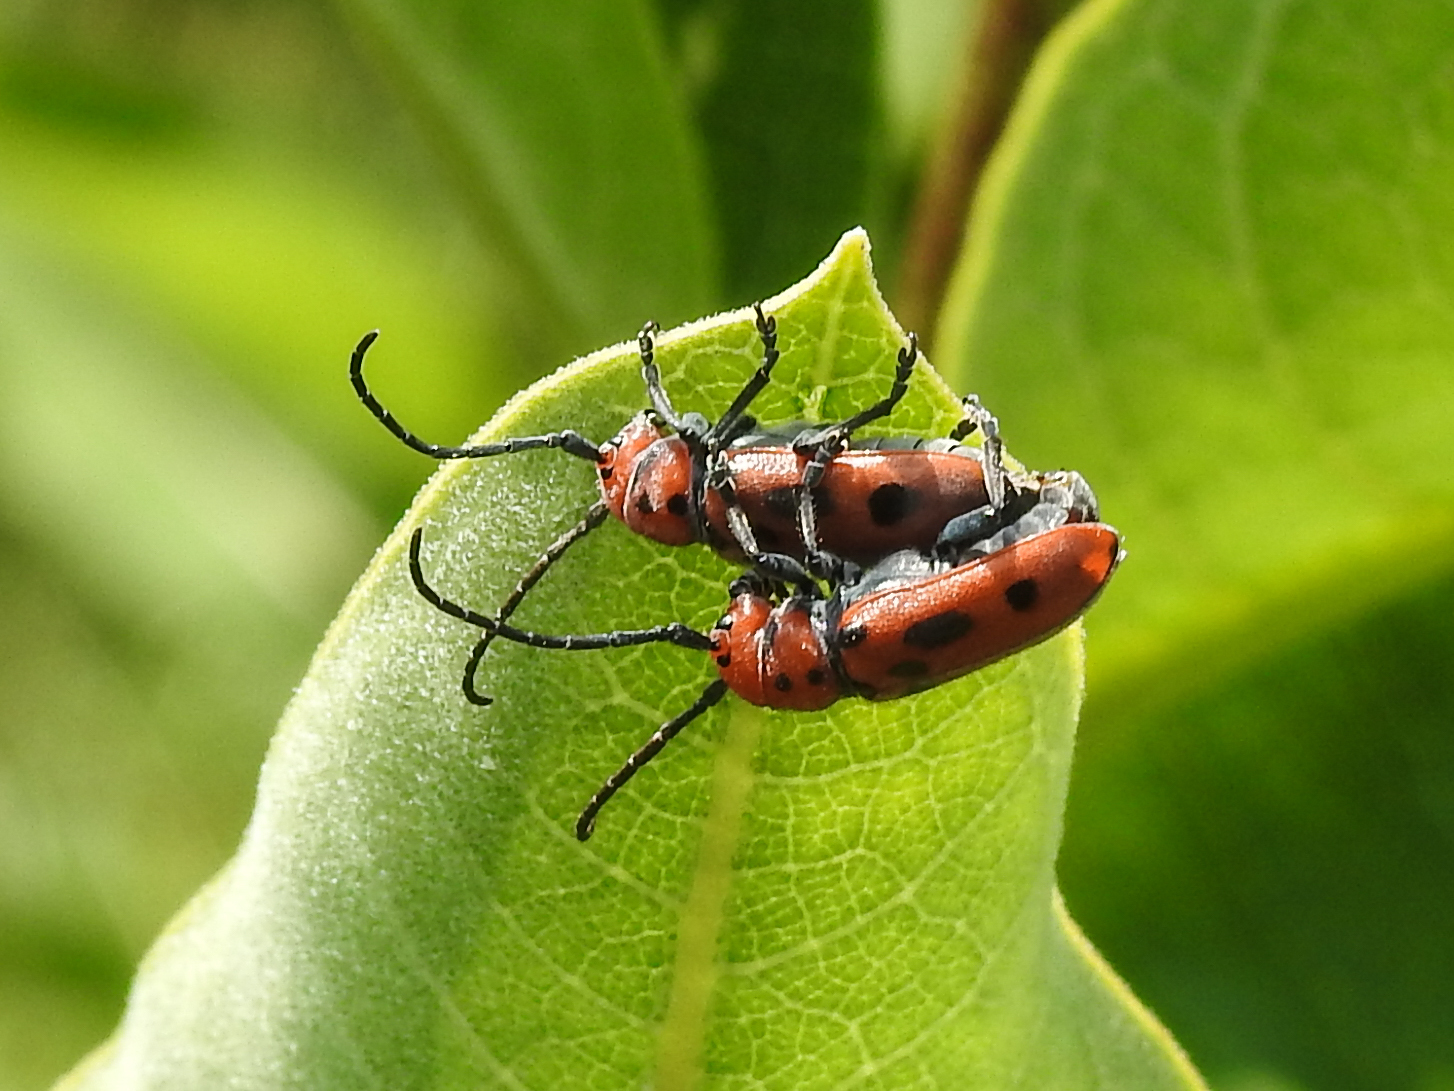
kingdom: Animalia
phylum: Arthropoda
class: Insecta
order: Coleoptera
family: Cerambycidae
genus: Tetraopes
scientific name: Tetraopes tetrophthalmus
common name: Red milkweed beetle
